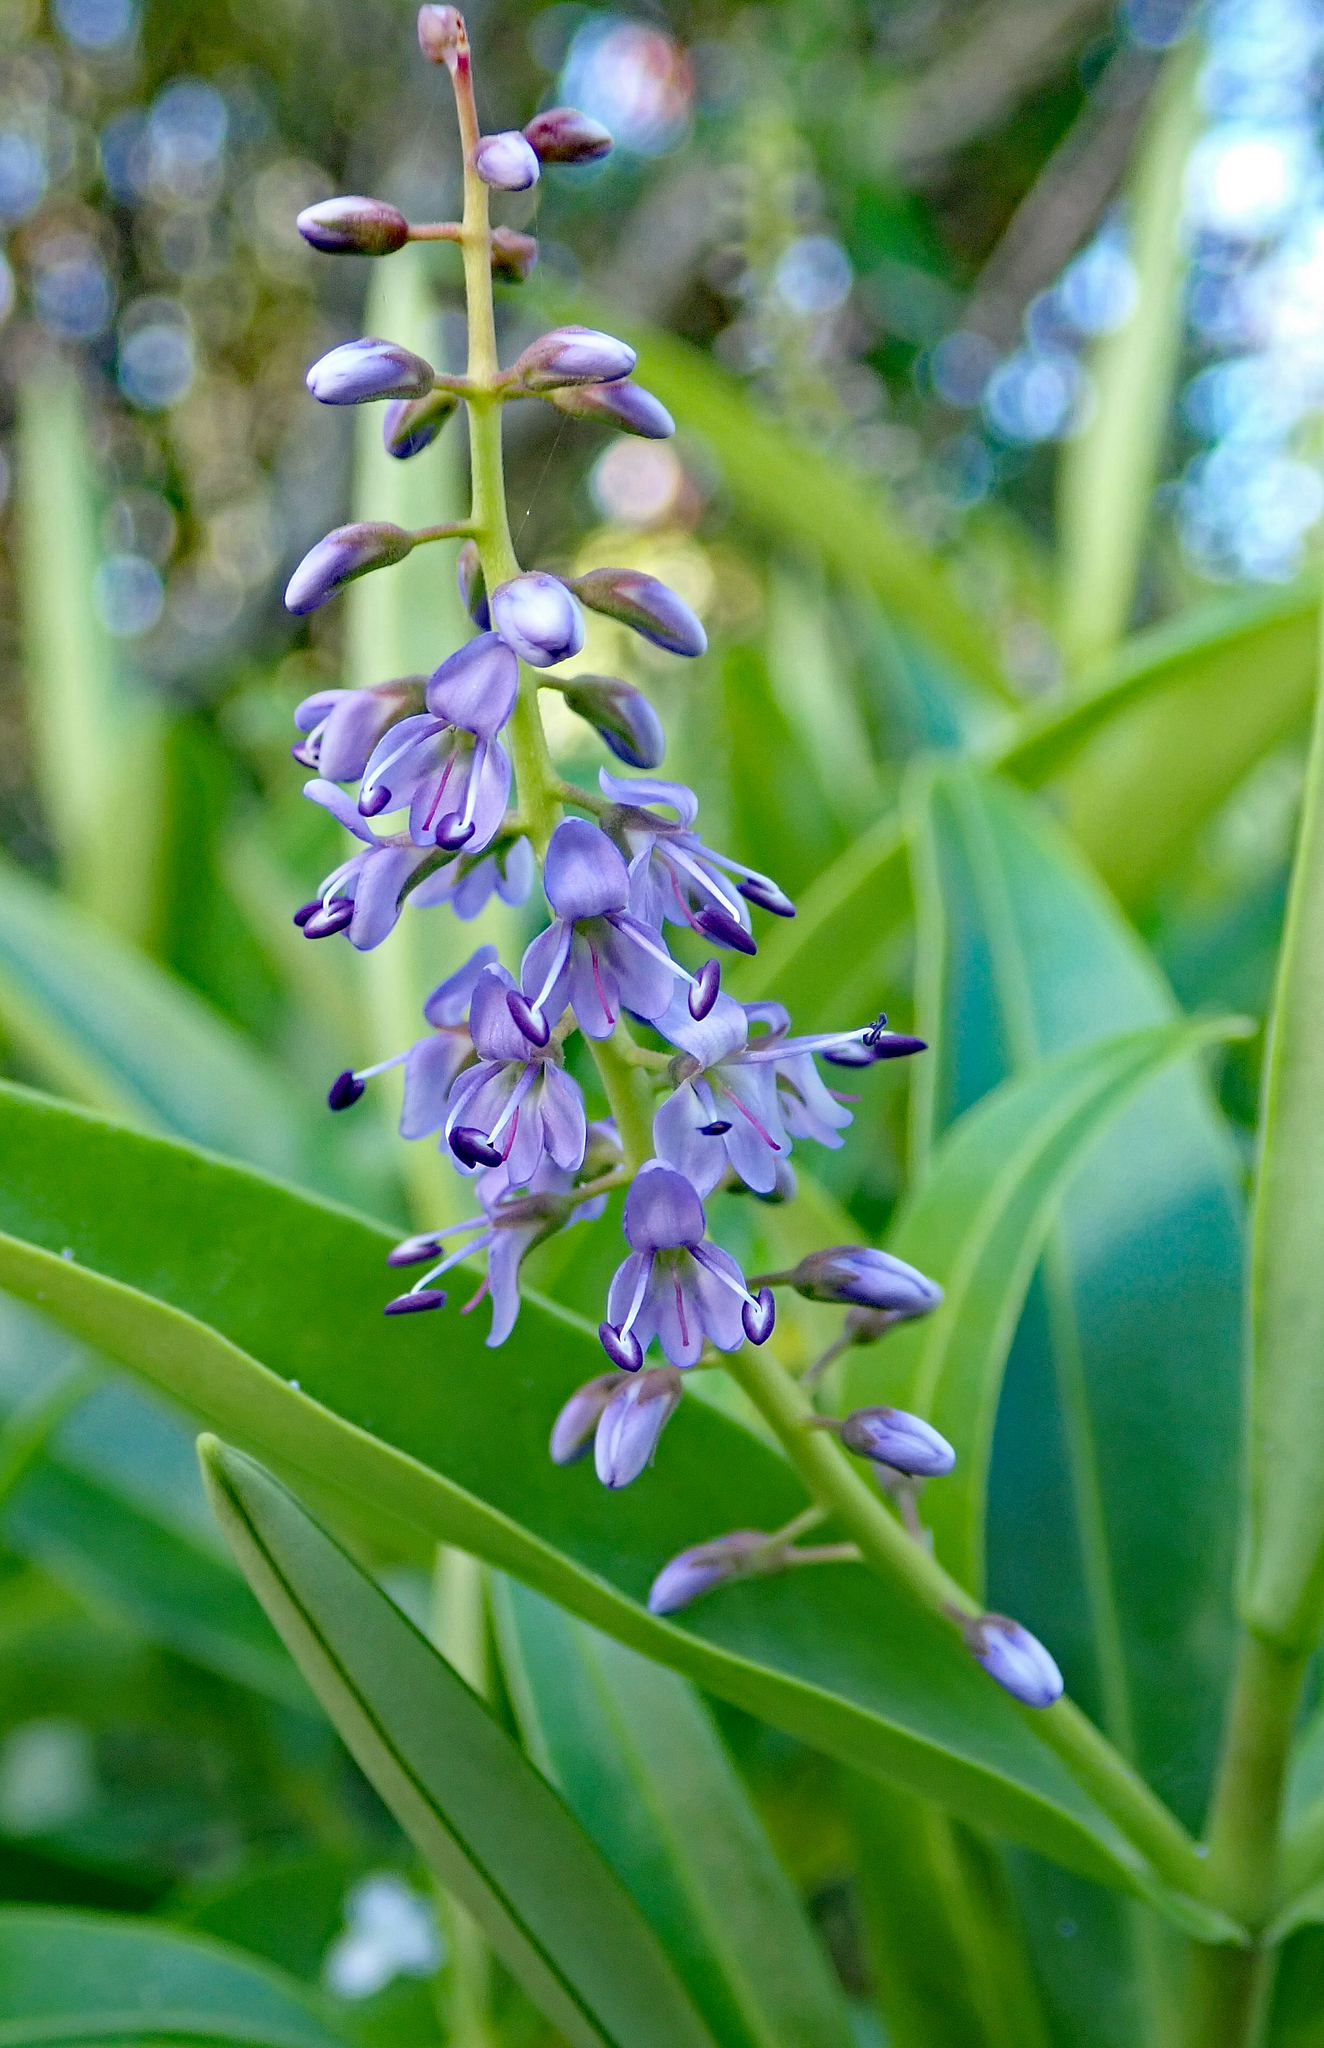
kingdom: Plantae
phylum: Tracheophyta
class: Magnoliopsida
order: Lamiales
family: Plantaginaceae
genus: Veronica
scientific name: Veronica barkeri
